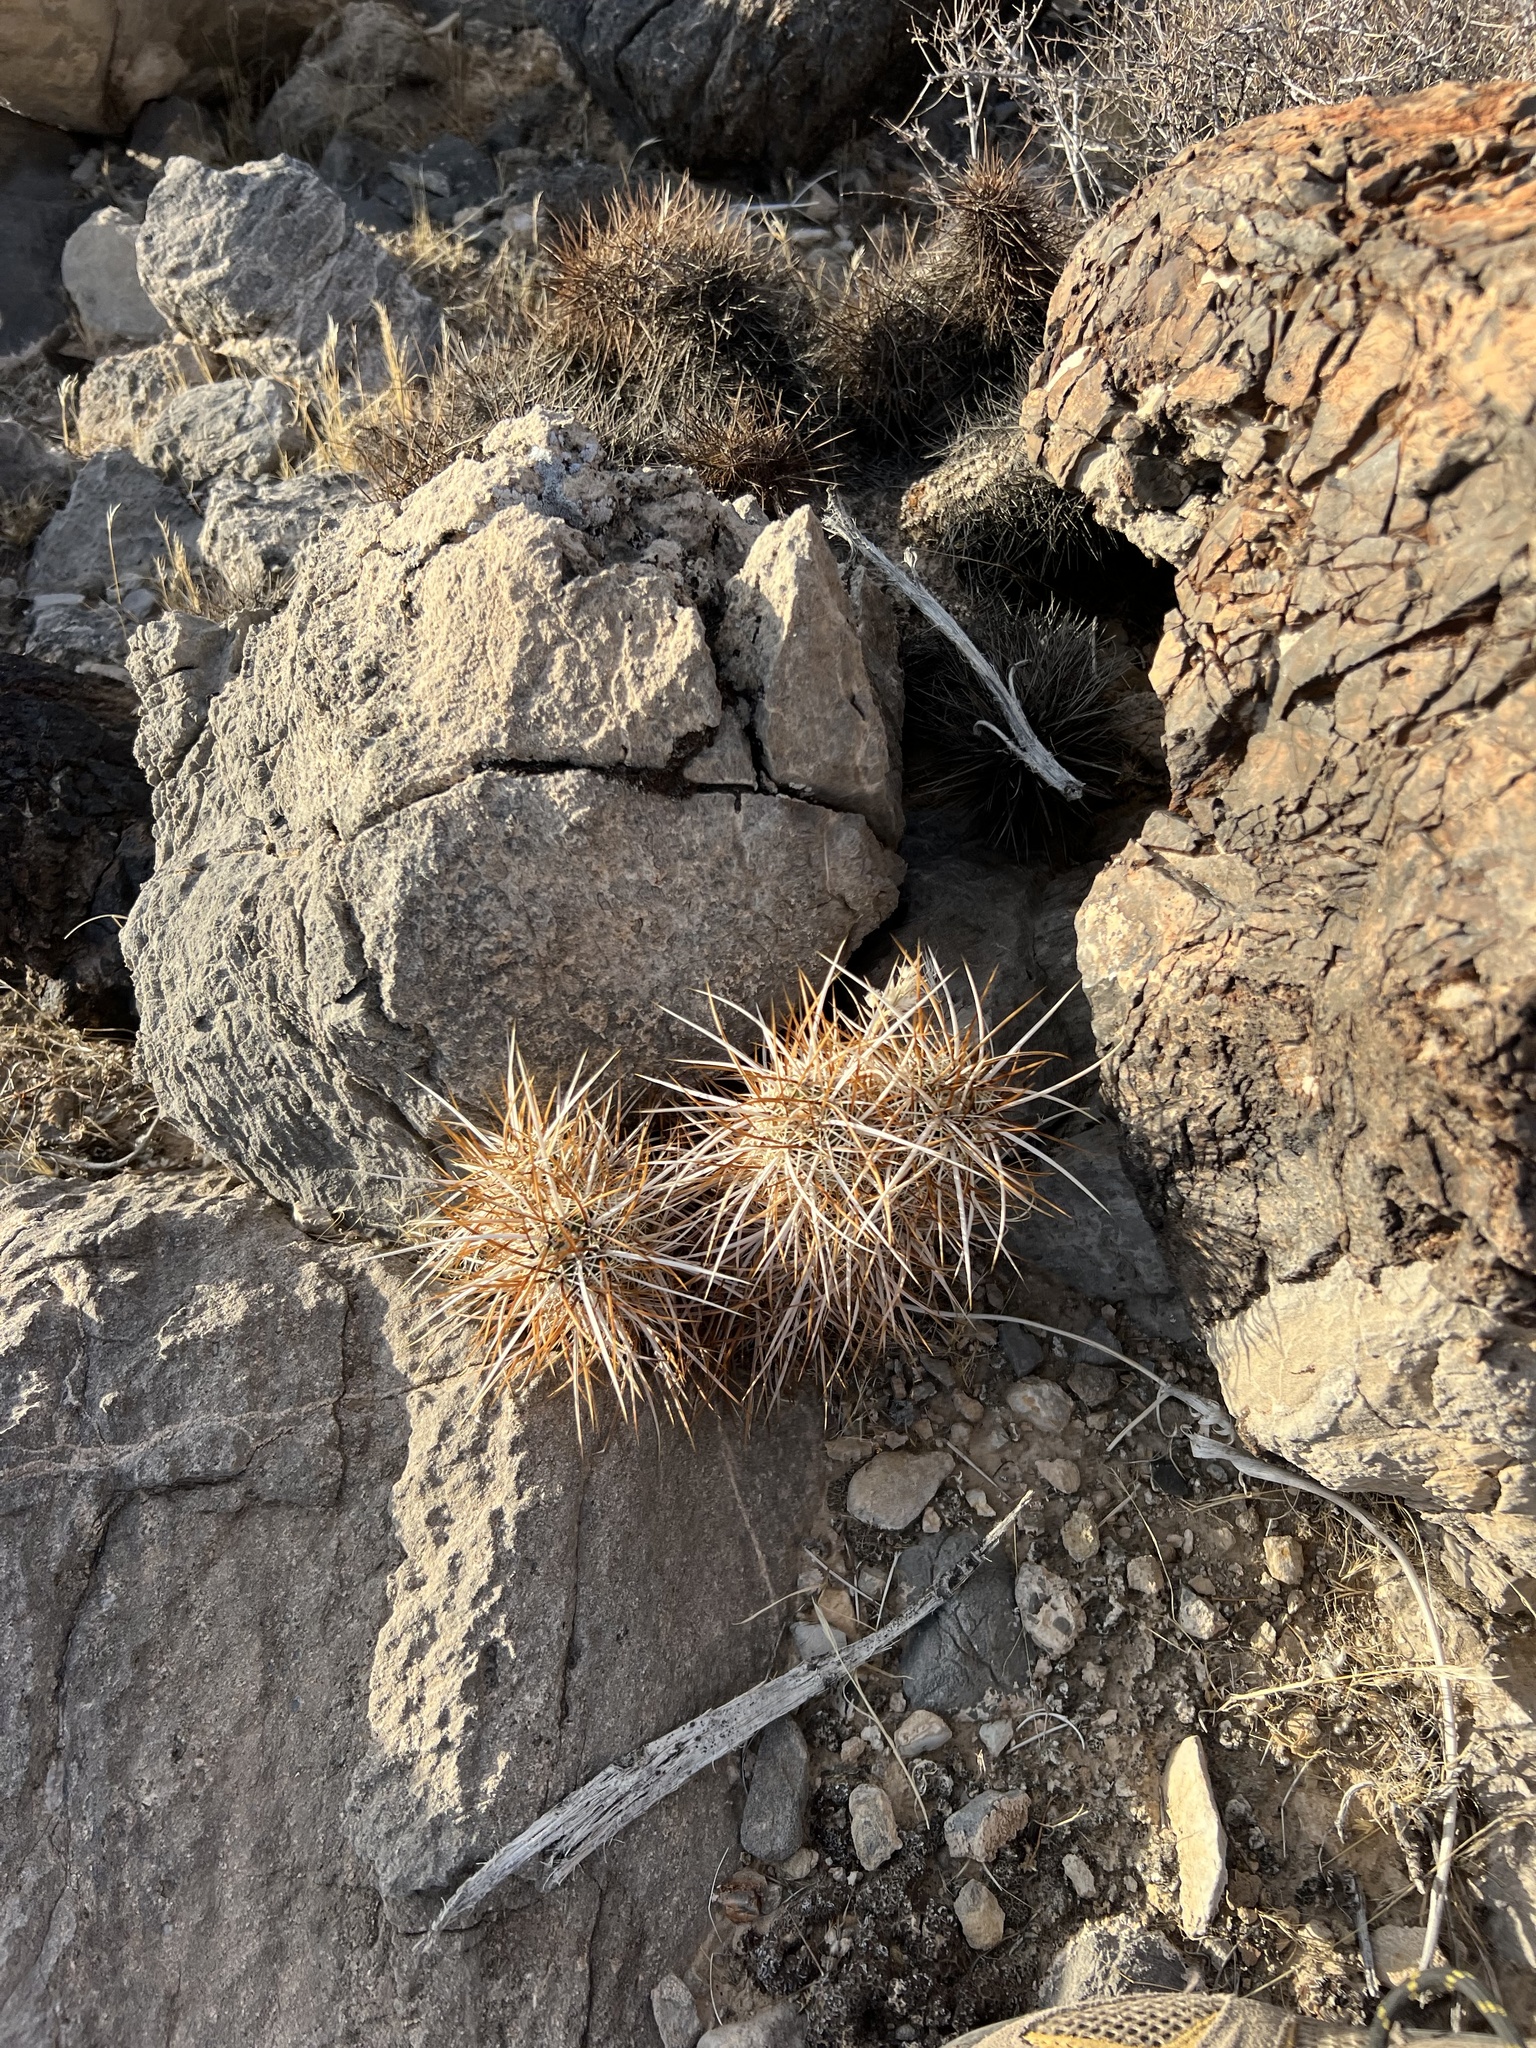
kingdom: Plantae
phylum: Tracheophyta
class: Magnoliopsida
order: Caryophyllales
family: Cactaceae
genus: Echinocereus
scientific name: Echinocereus engelmannii
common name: Engelmann's hedgehog cactus
